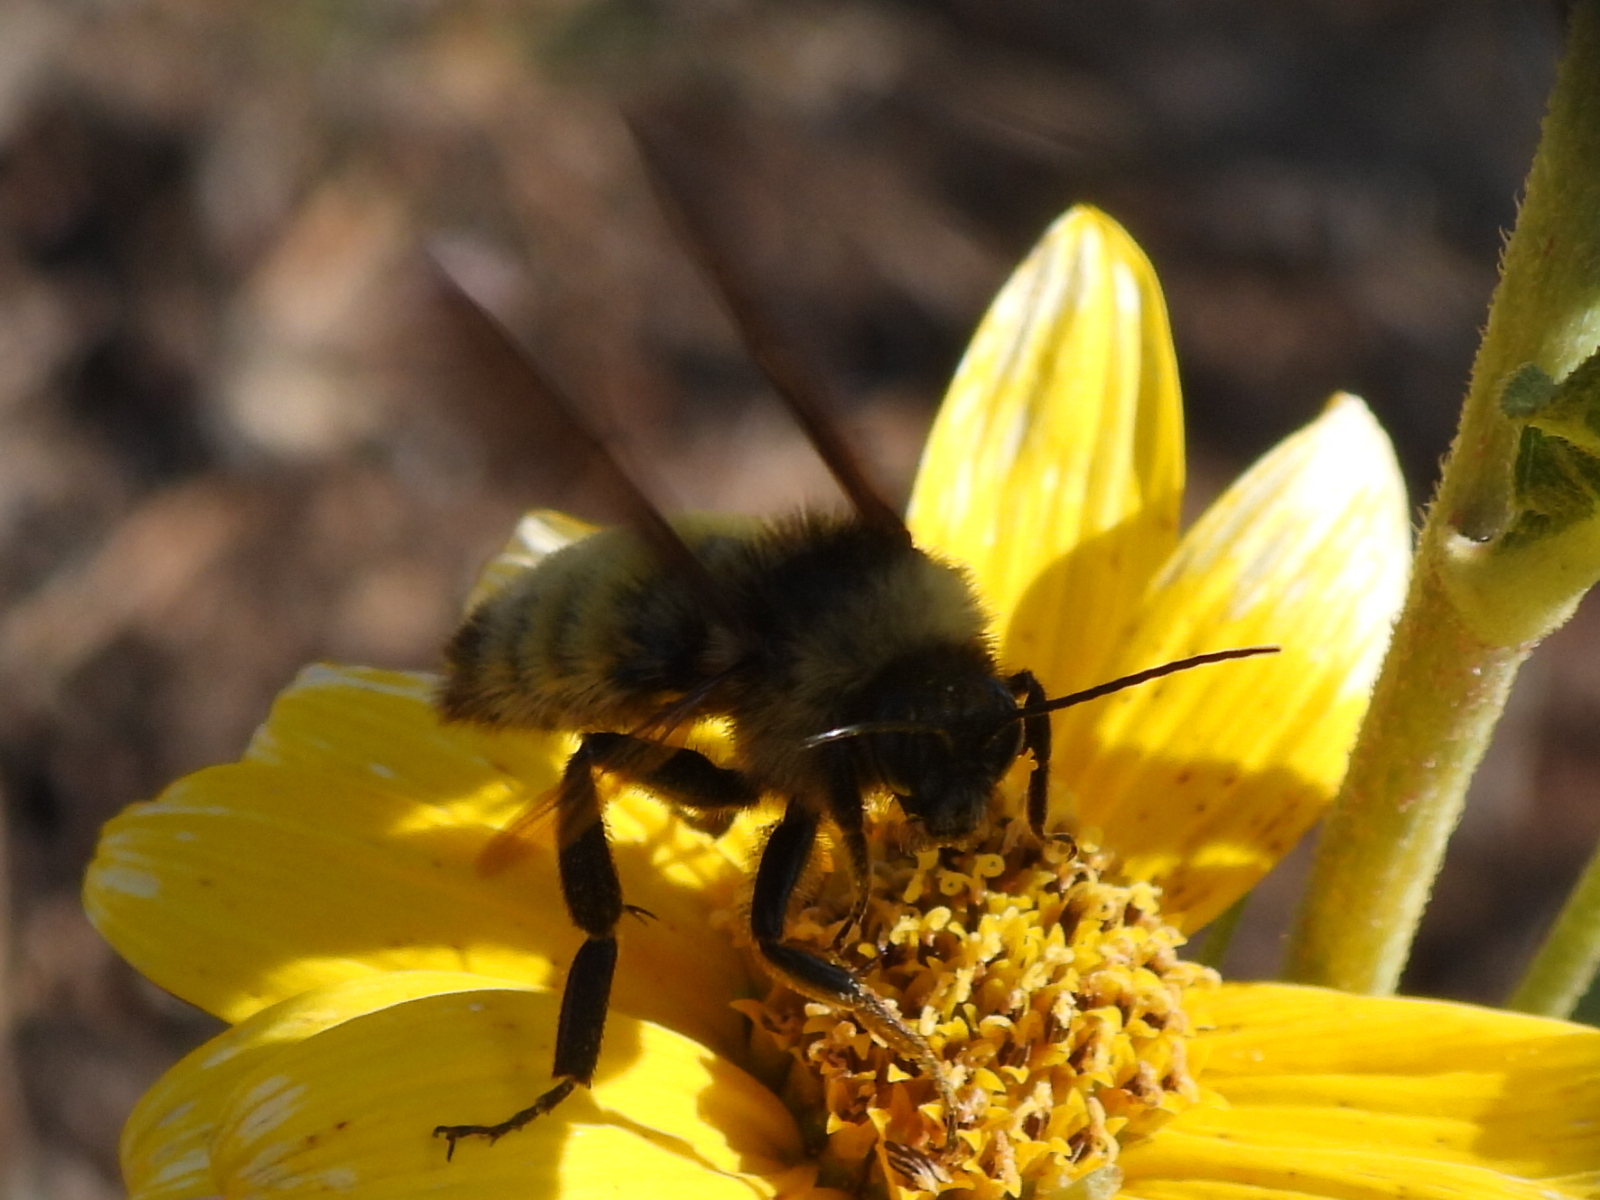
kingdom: Animalia
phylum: Arthropoda
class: Insecta
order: Hymenoptera
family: Apidae
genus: Bombus
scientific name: Bombus pensylvanicus
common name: Bumble bee
